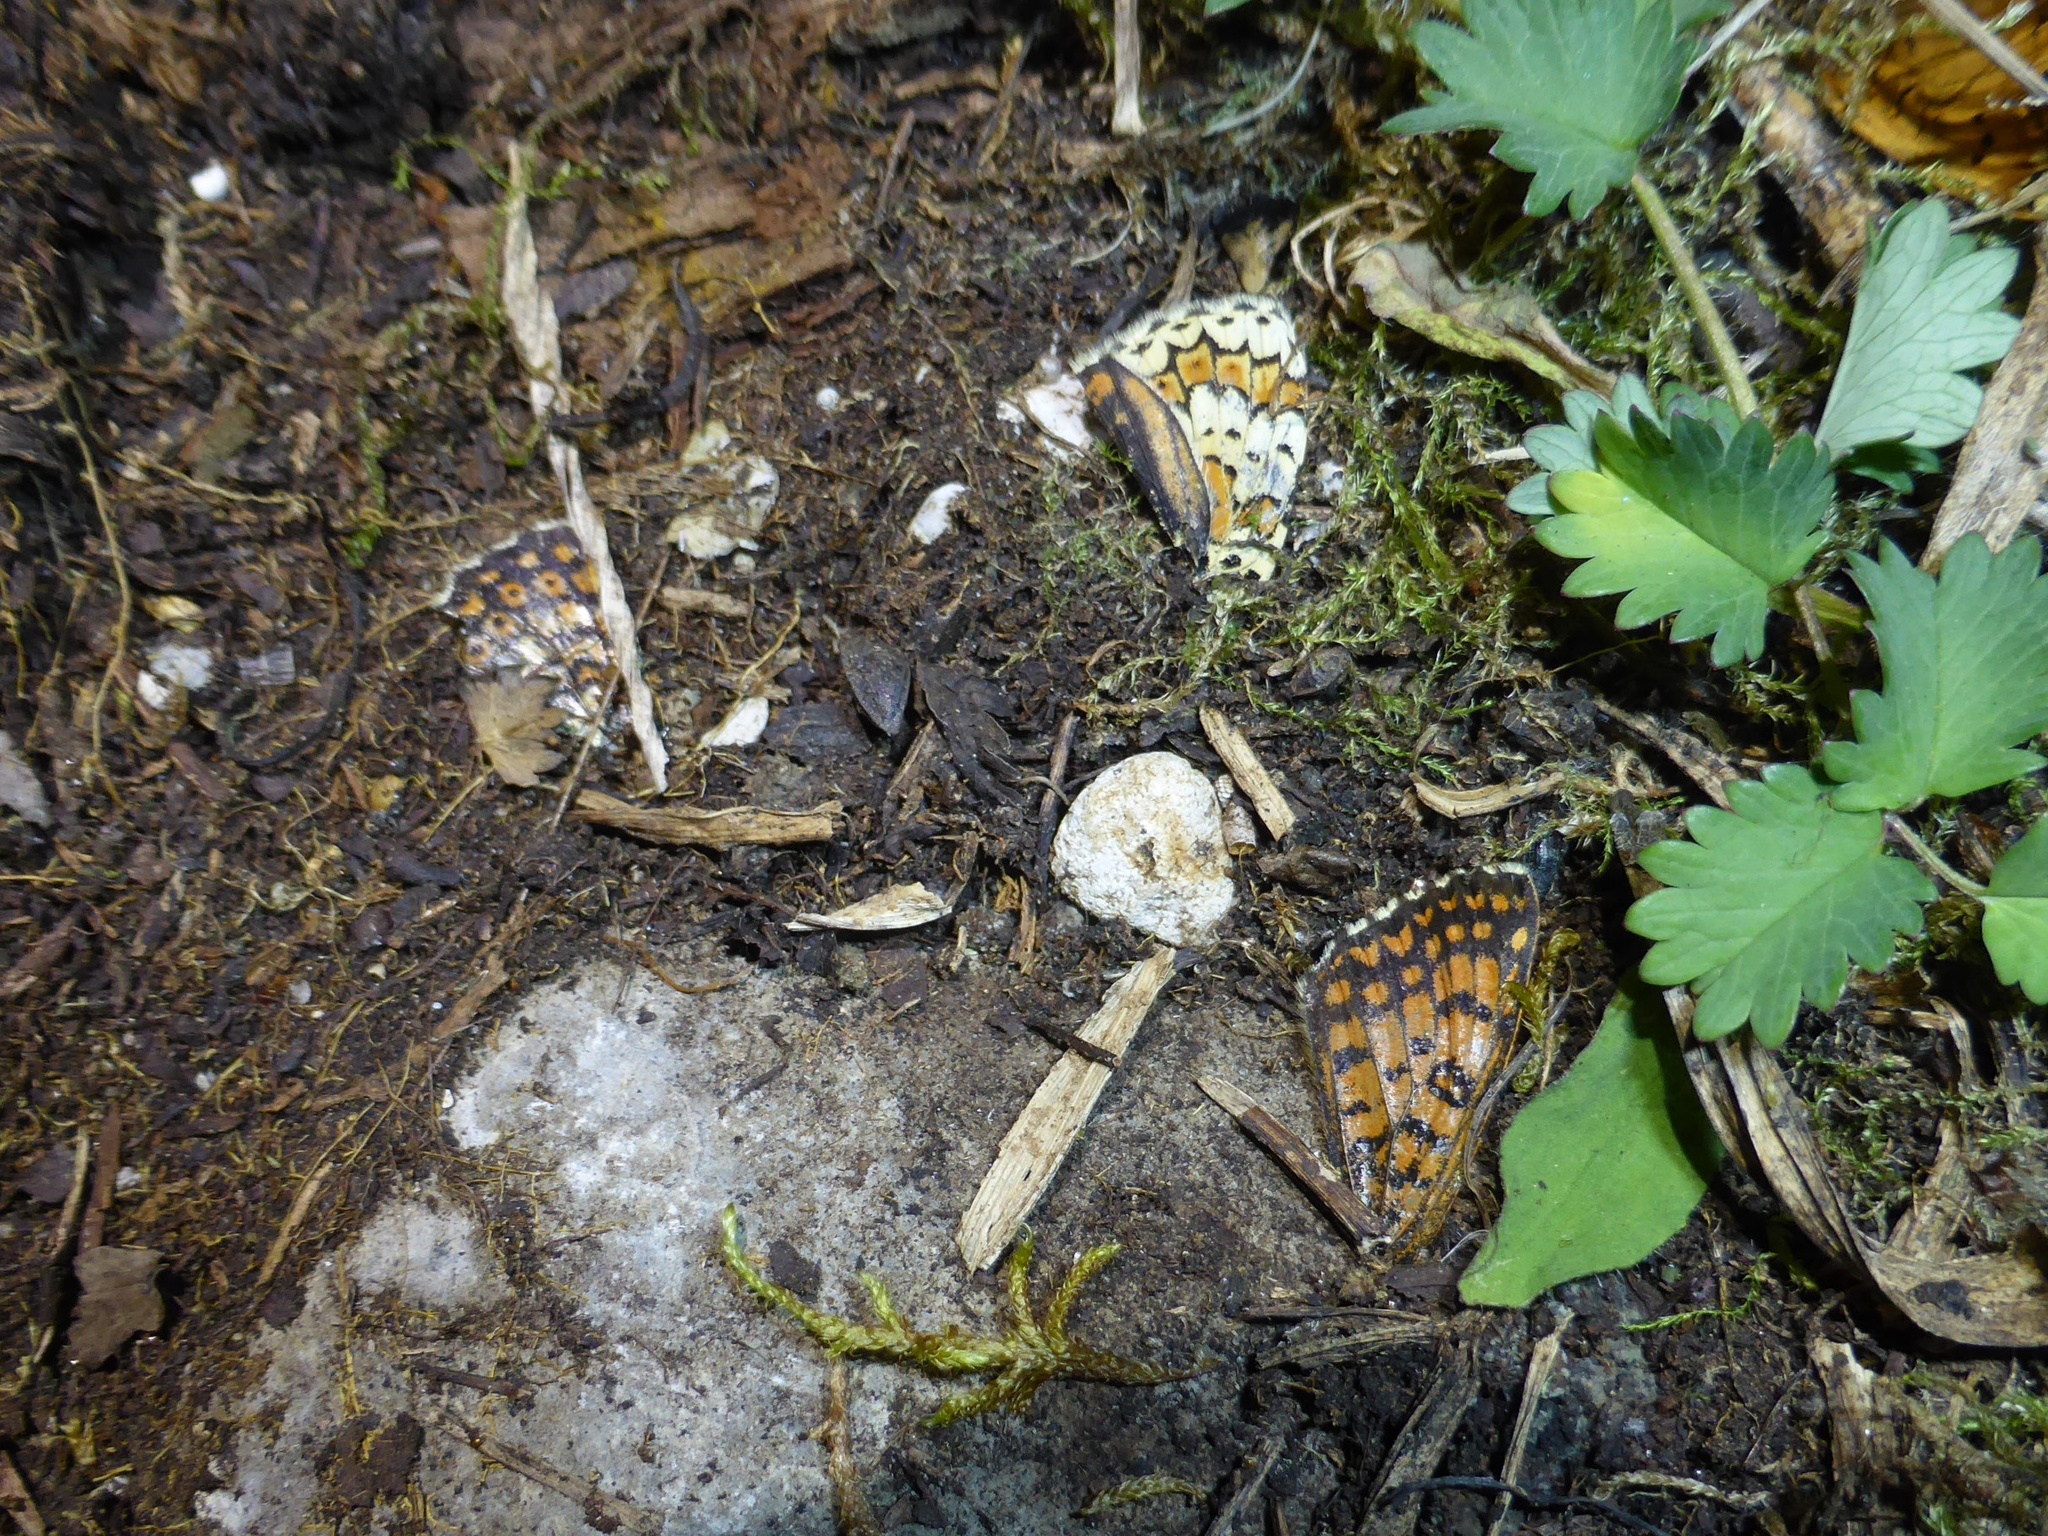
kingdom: Animalia
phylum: Arthropoda
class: Insecta
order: Lepidoptera
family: Nymphalidae
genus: Melitaea
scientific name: Melitaea cinxia
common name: Glanville fritillary
